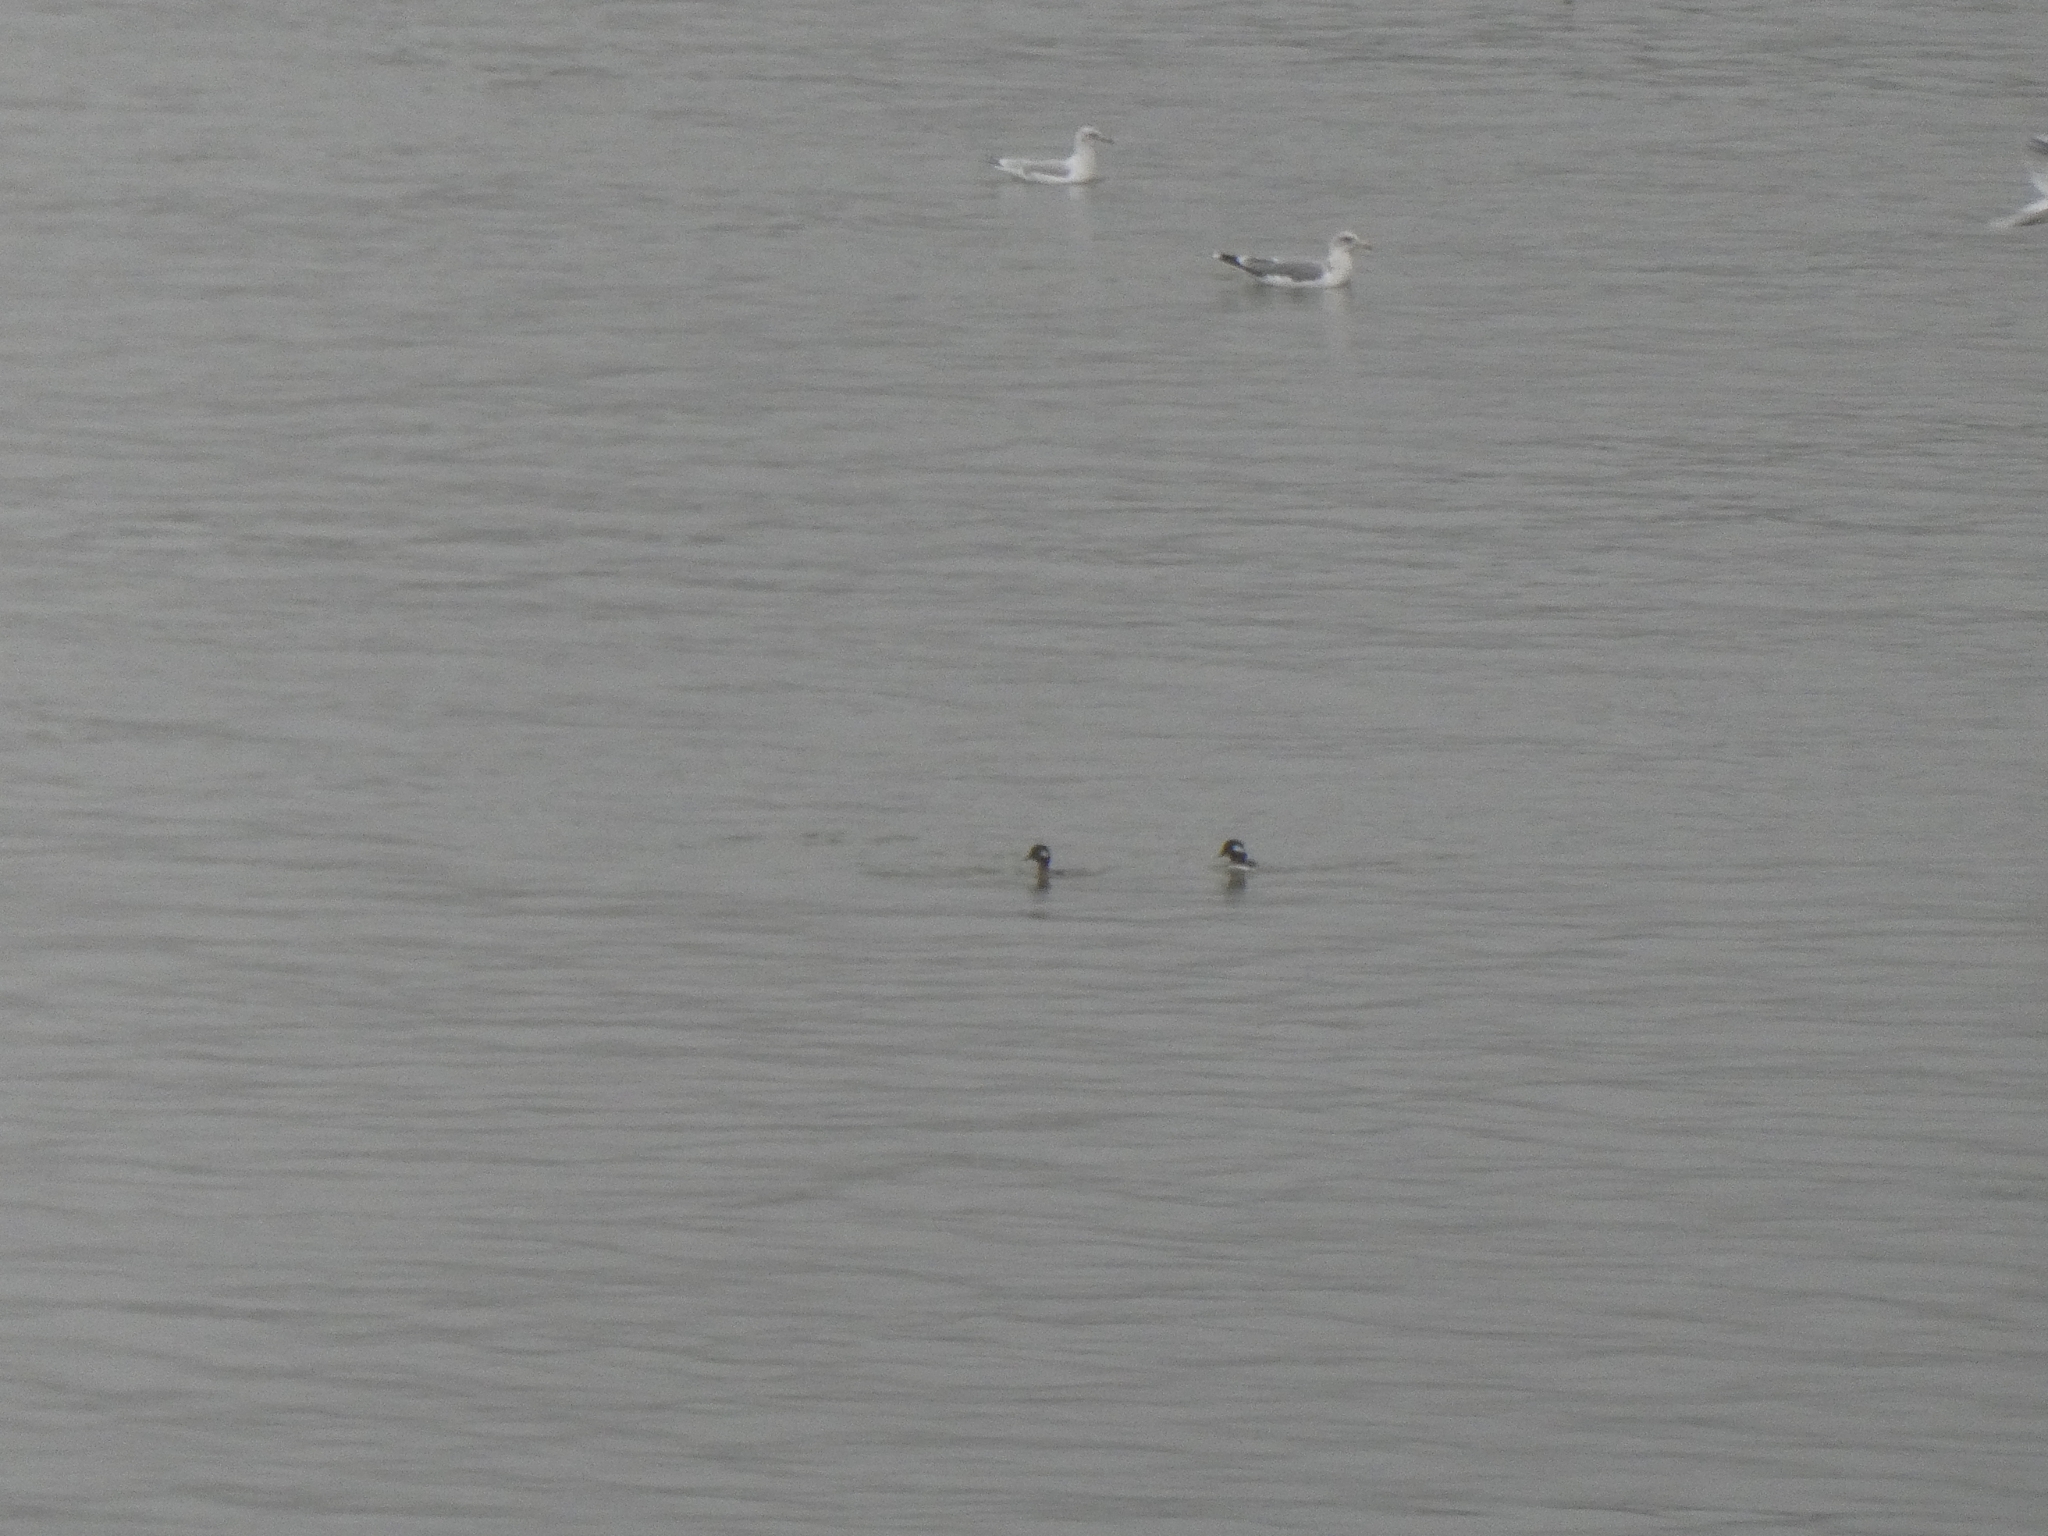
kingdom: Animalia
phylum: Chordata
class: Aves
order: Anseriformes
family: Anatidae
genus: Bucephala
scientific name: Bucephala albeola
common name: Bufflehead
